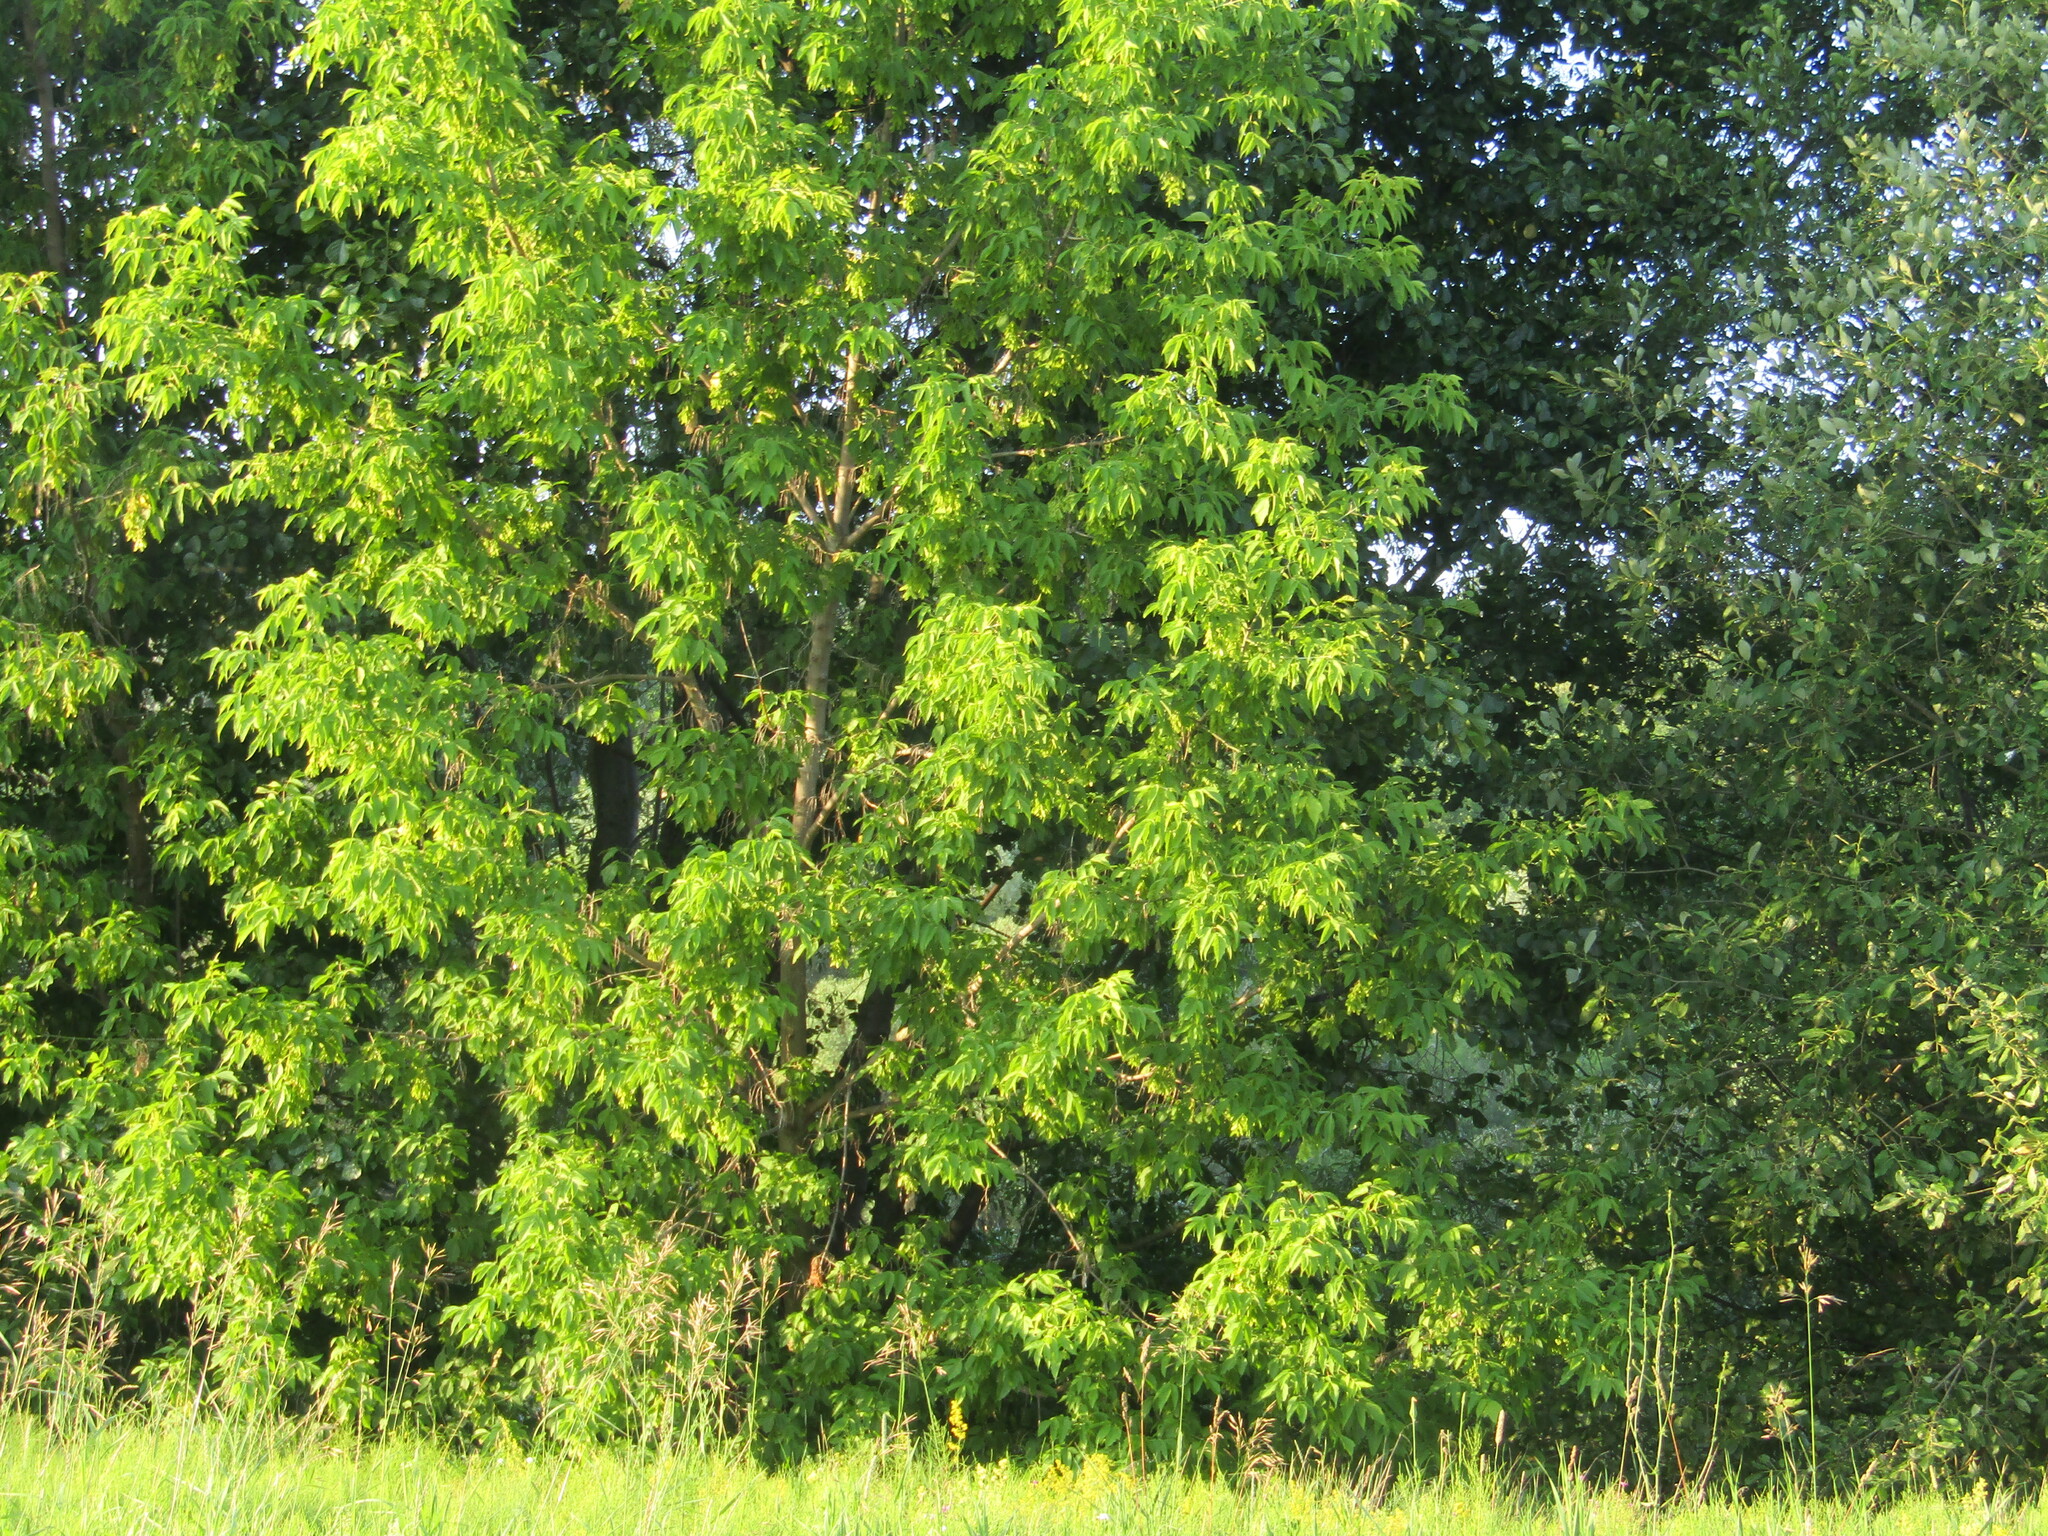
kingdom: Plantae
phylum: Tracheophyta
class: Magnoliopsida
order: Sapindales
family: Sapindaceae
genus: Acer
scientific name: Acer negundo
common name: Ashleaf maple
